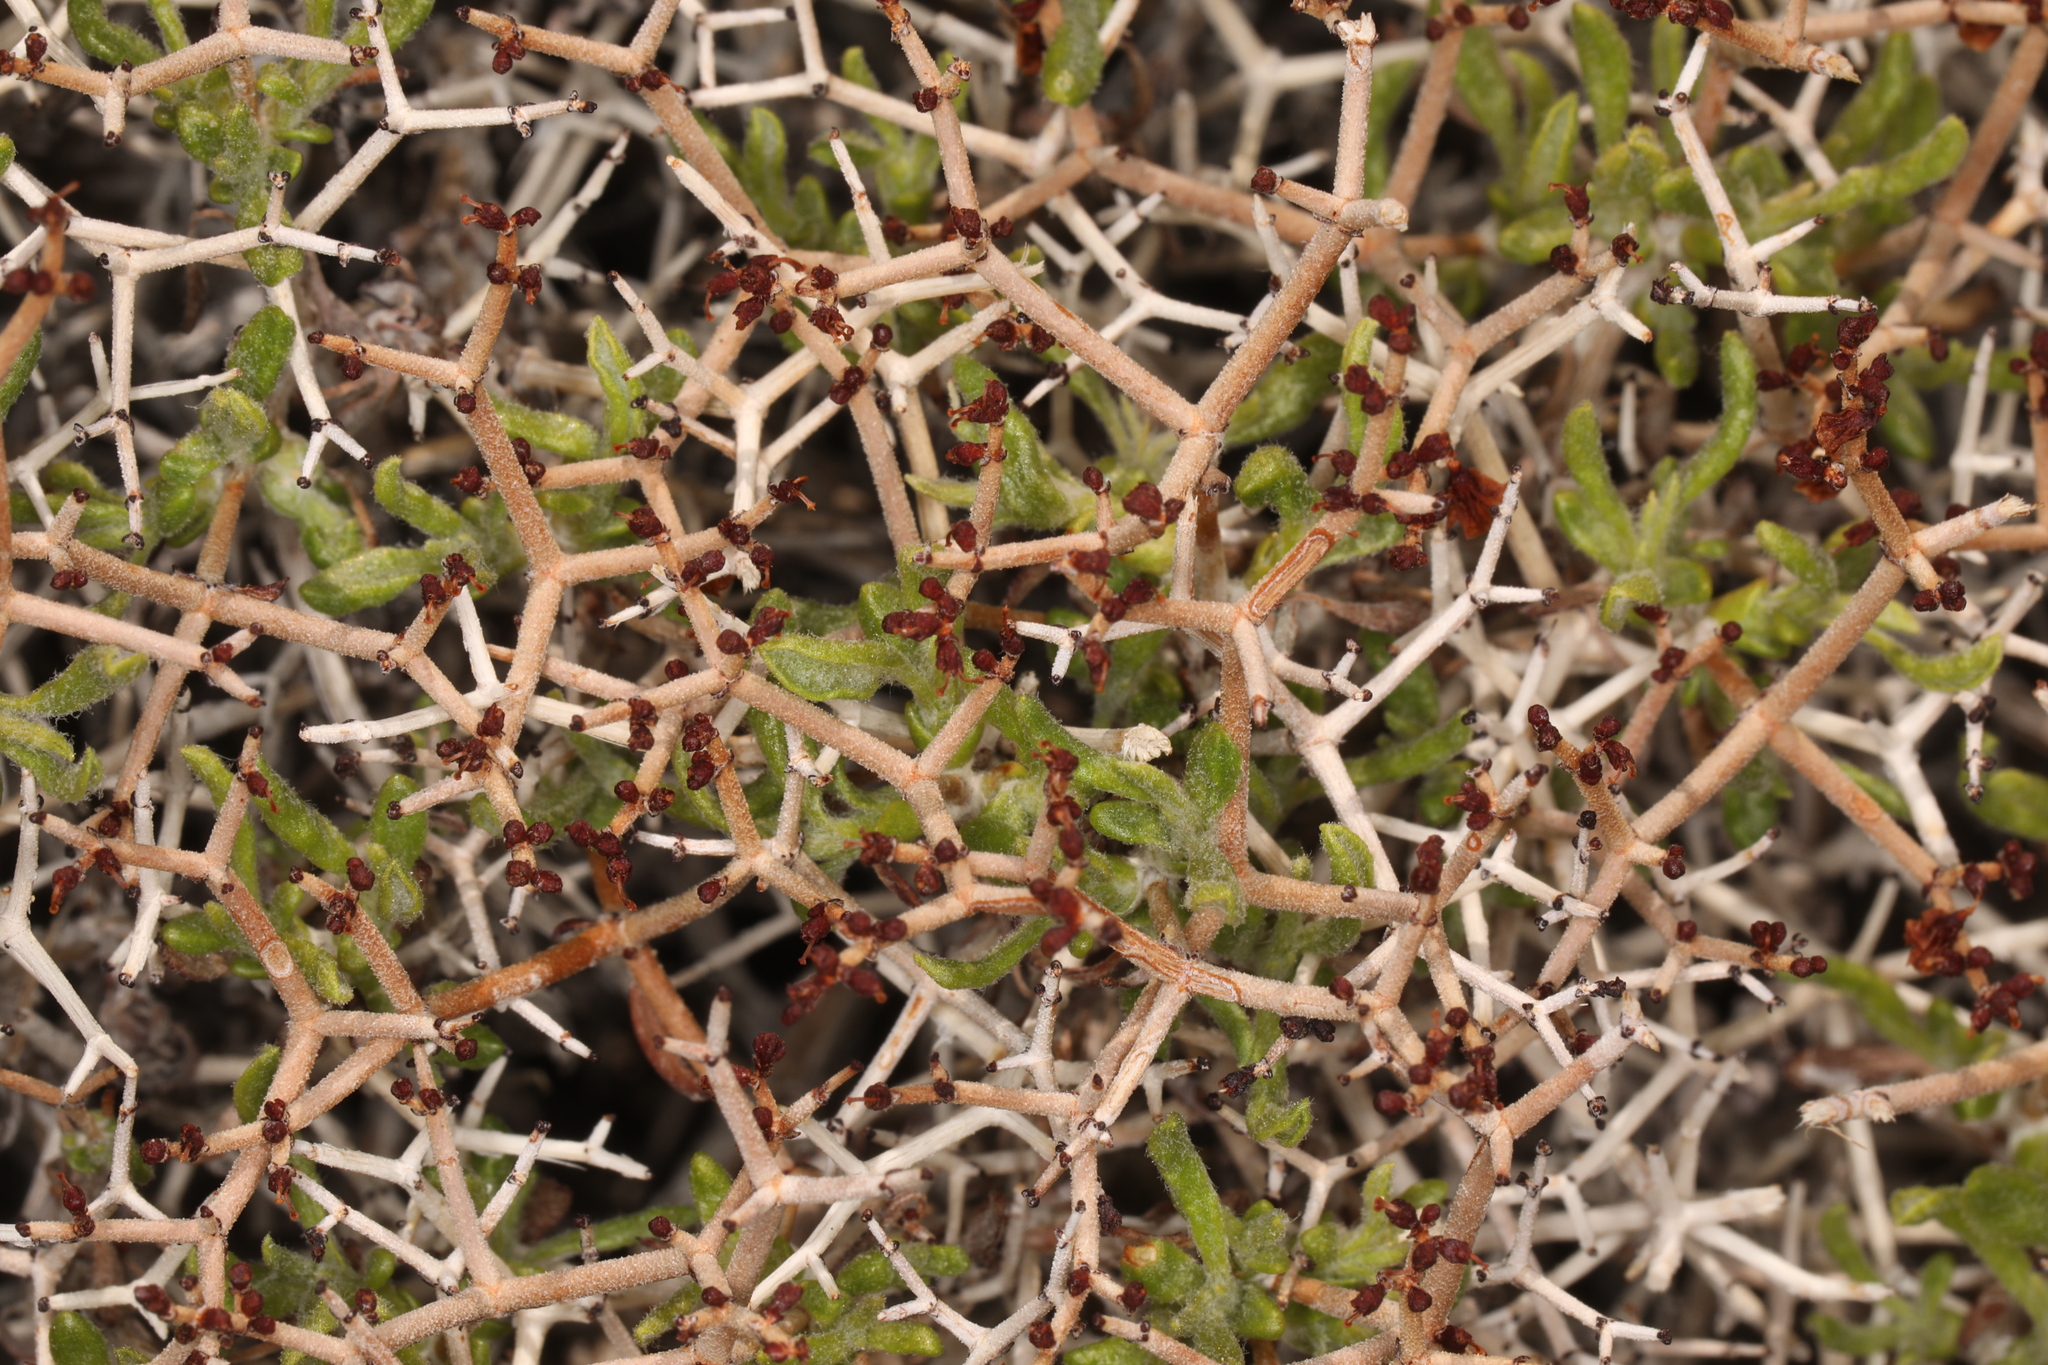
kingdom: Plantae
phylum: Tracheophyta
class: Magnoliopsida
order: Caryophyllales
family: Polygonaceae
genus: Eriogonum
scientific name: Eriogonum heermannii
